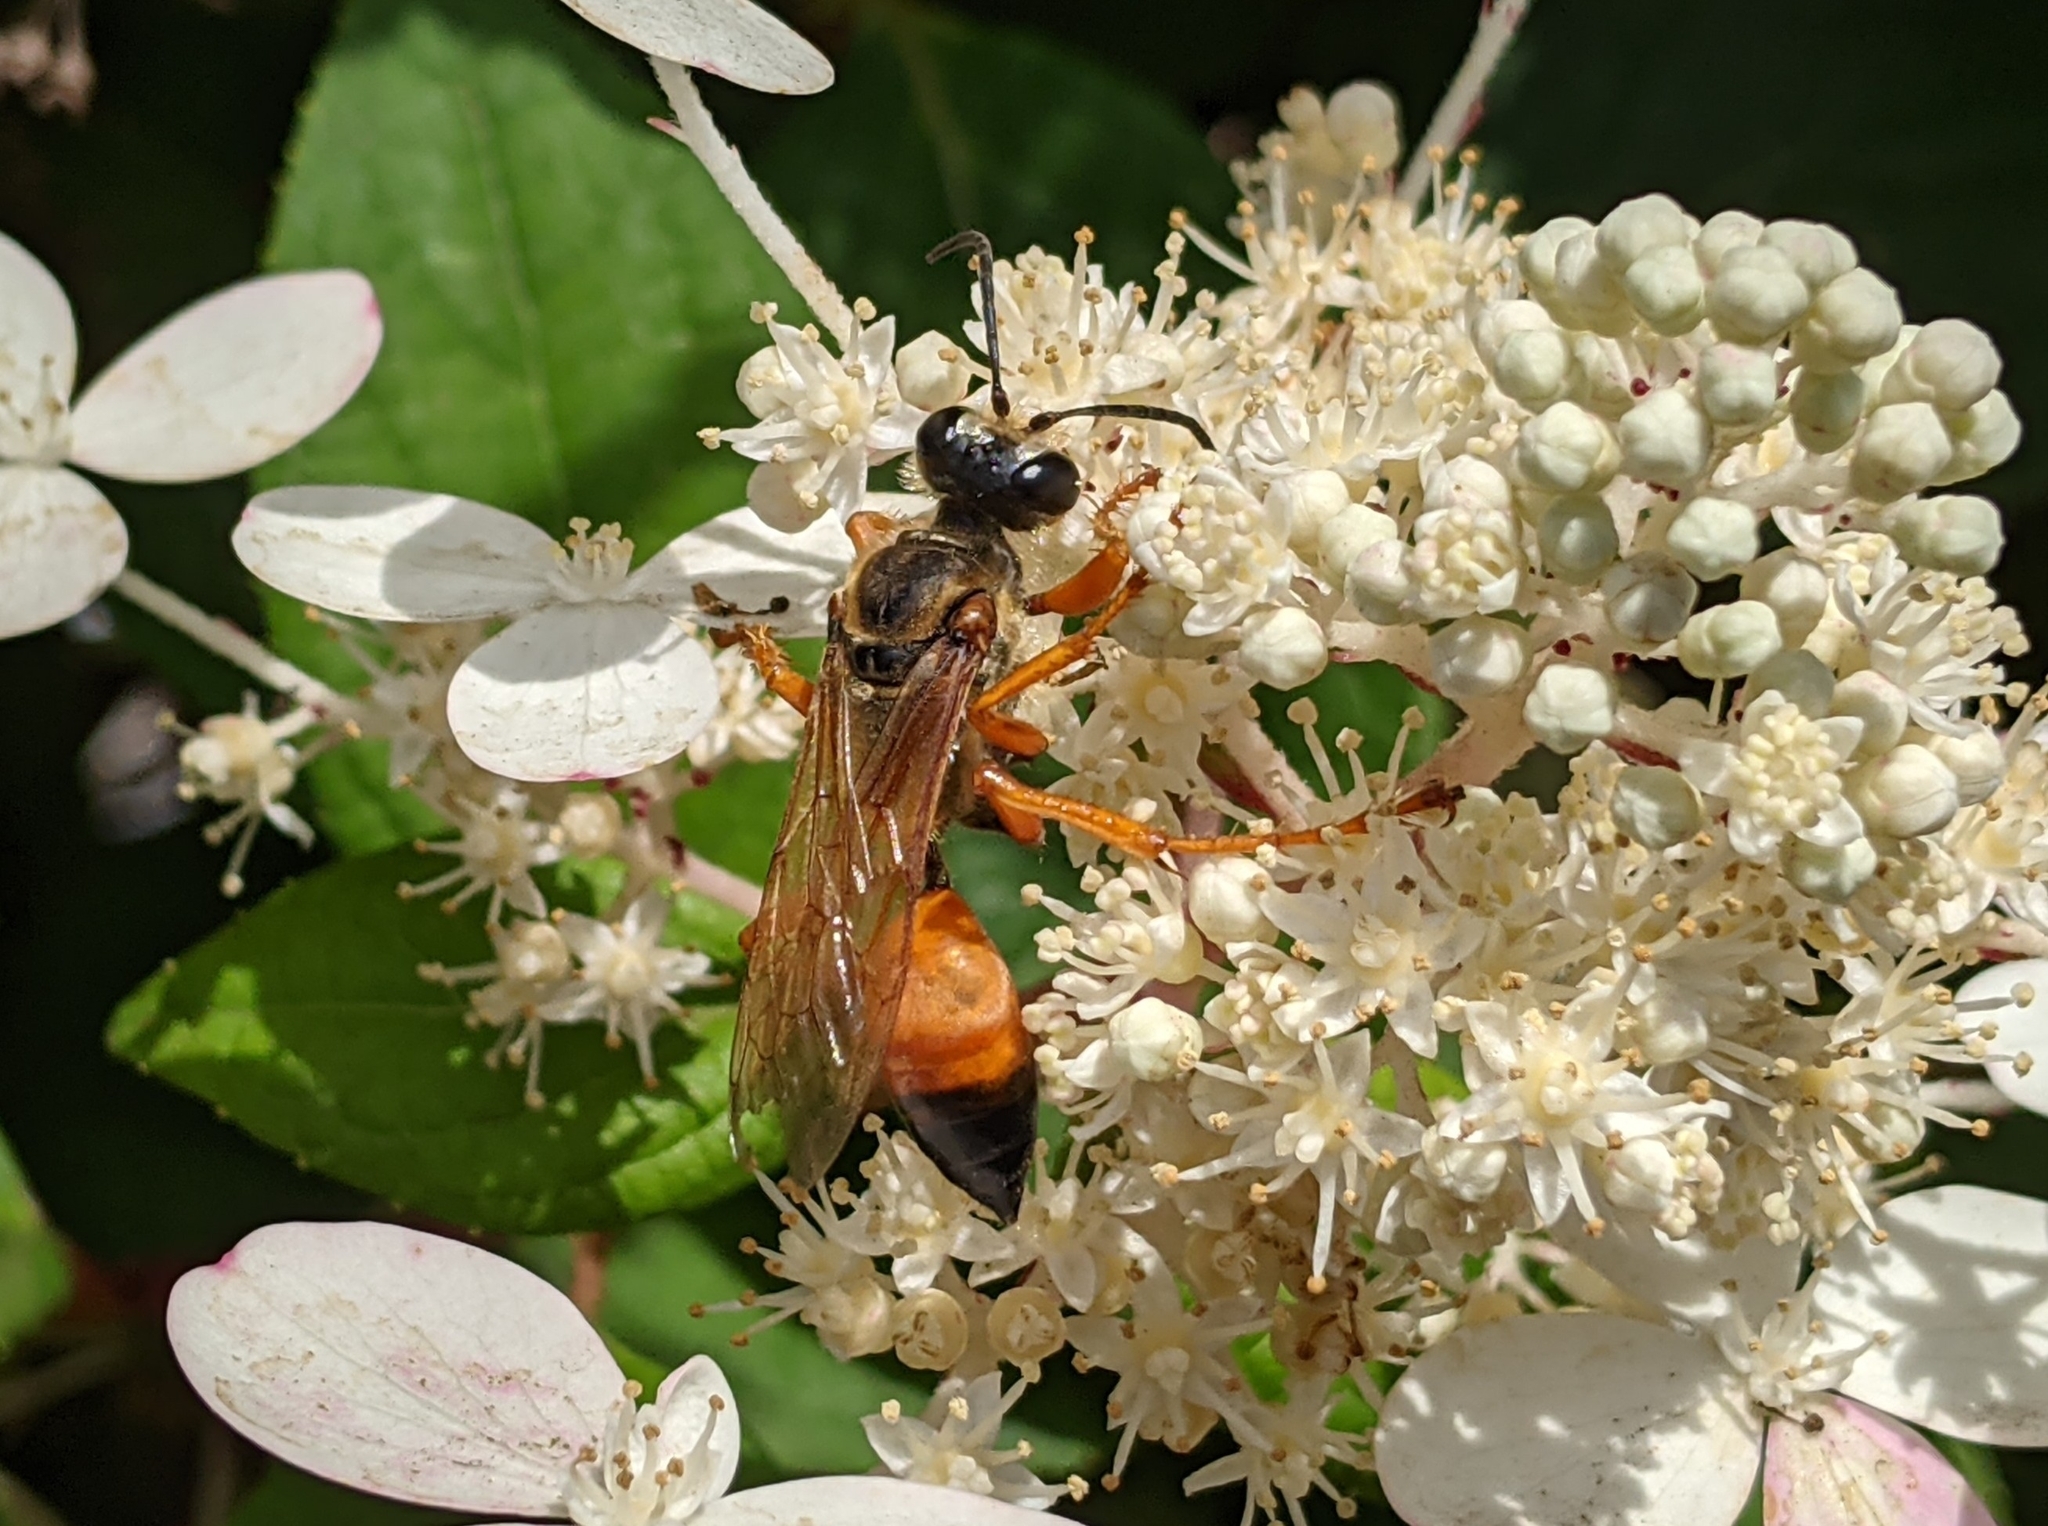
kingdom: Animalia
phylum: Arthropoda
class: Insecta
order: Hymenoptera
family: Sphecidae
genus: Sphex
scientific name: Sphex ichneumoneus
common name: Great golden digger wasp
